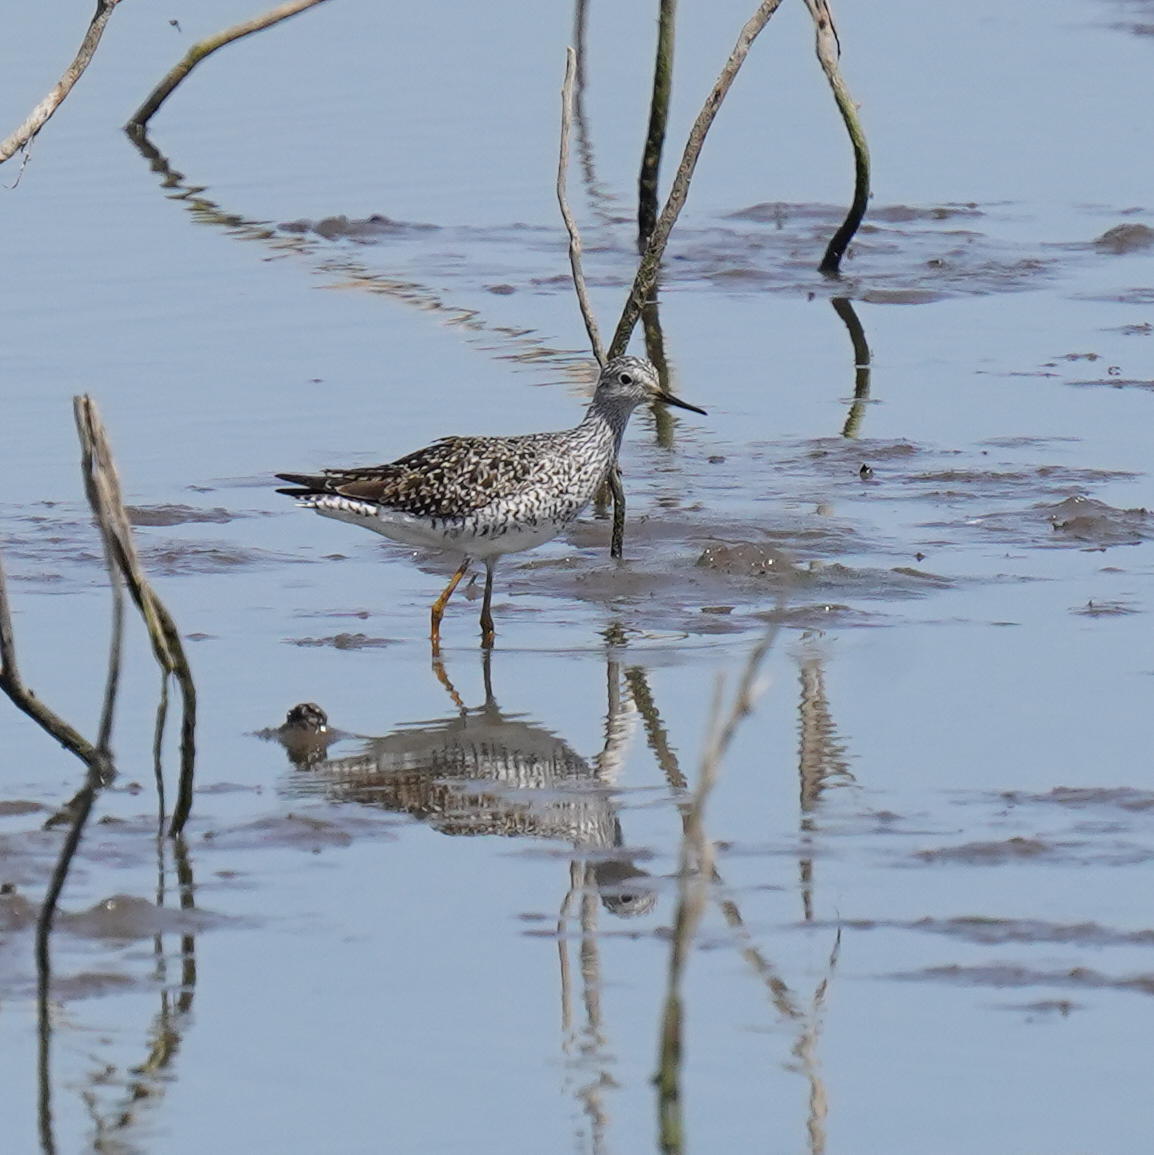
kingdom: Animalia
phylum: Chordata
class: Aves
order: Charadriiformes
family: Scolopacidae
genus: Tringa
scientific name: Tringa melanoleuca
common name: Greater yellowlegs
